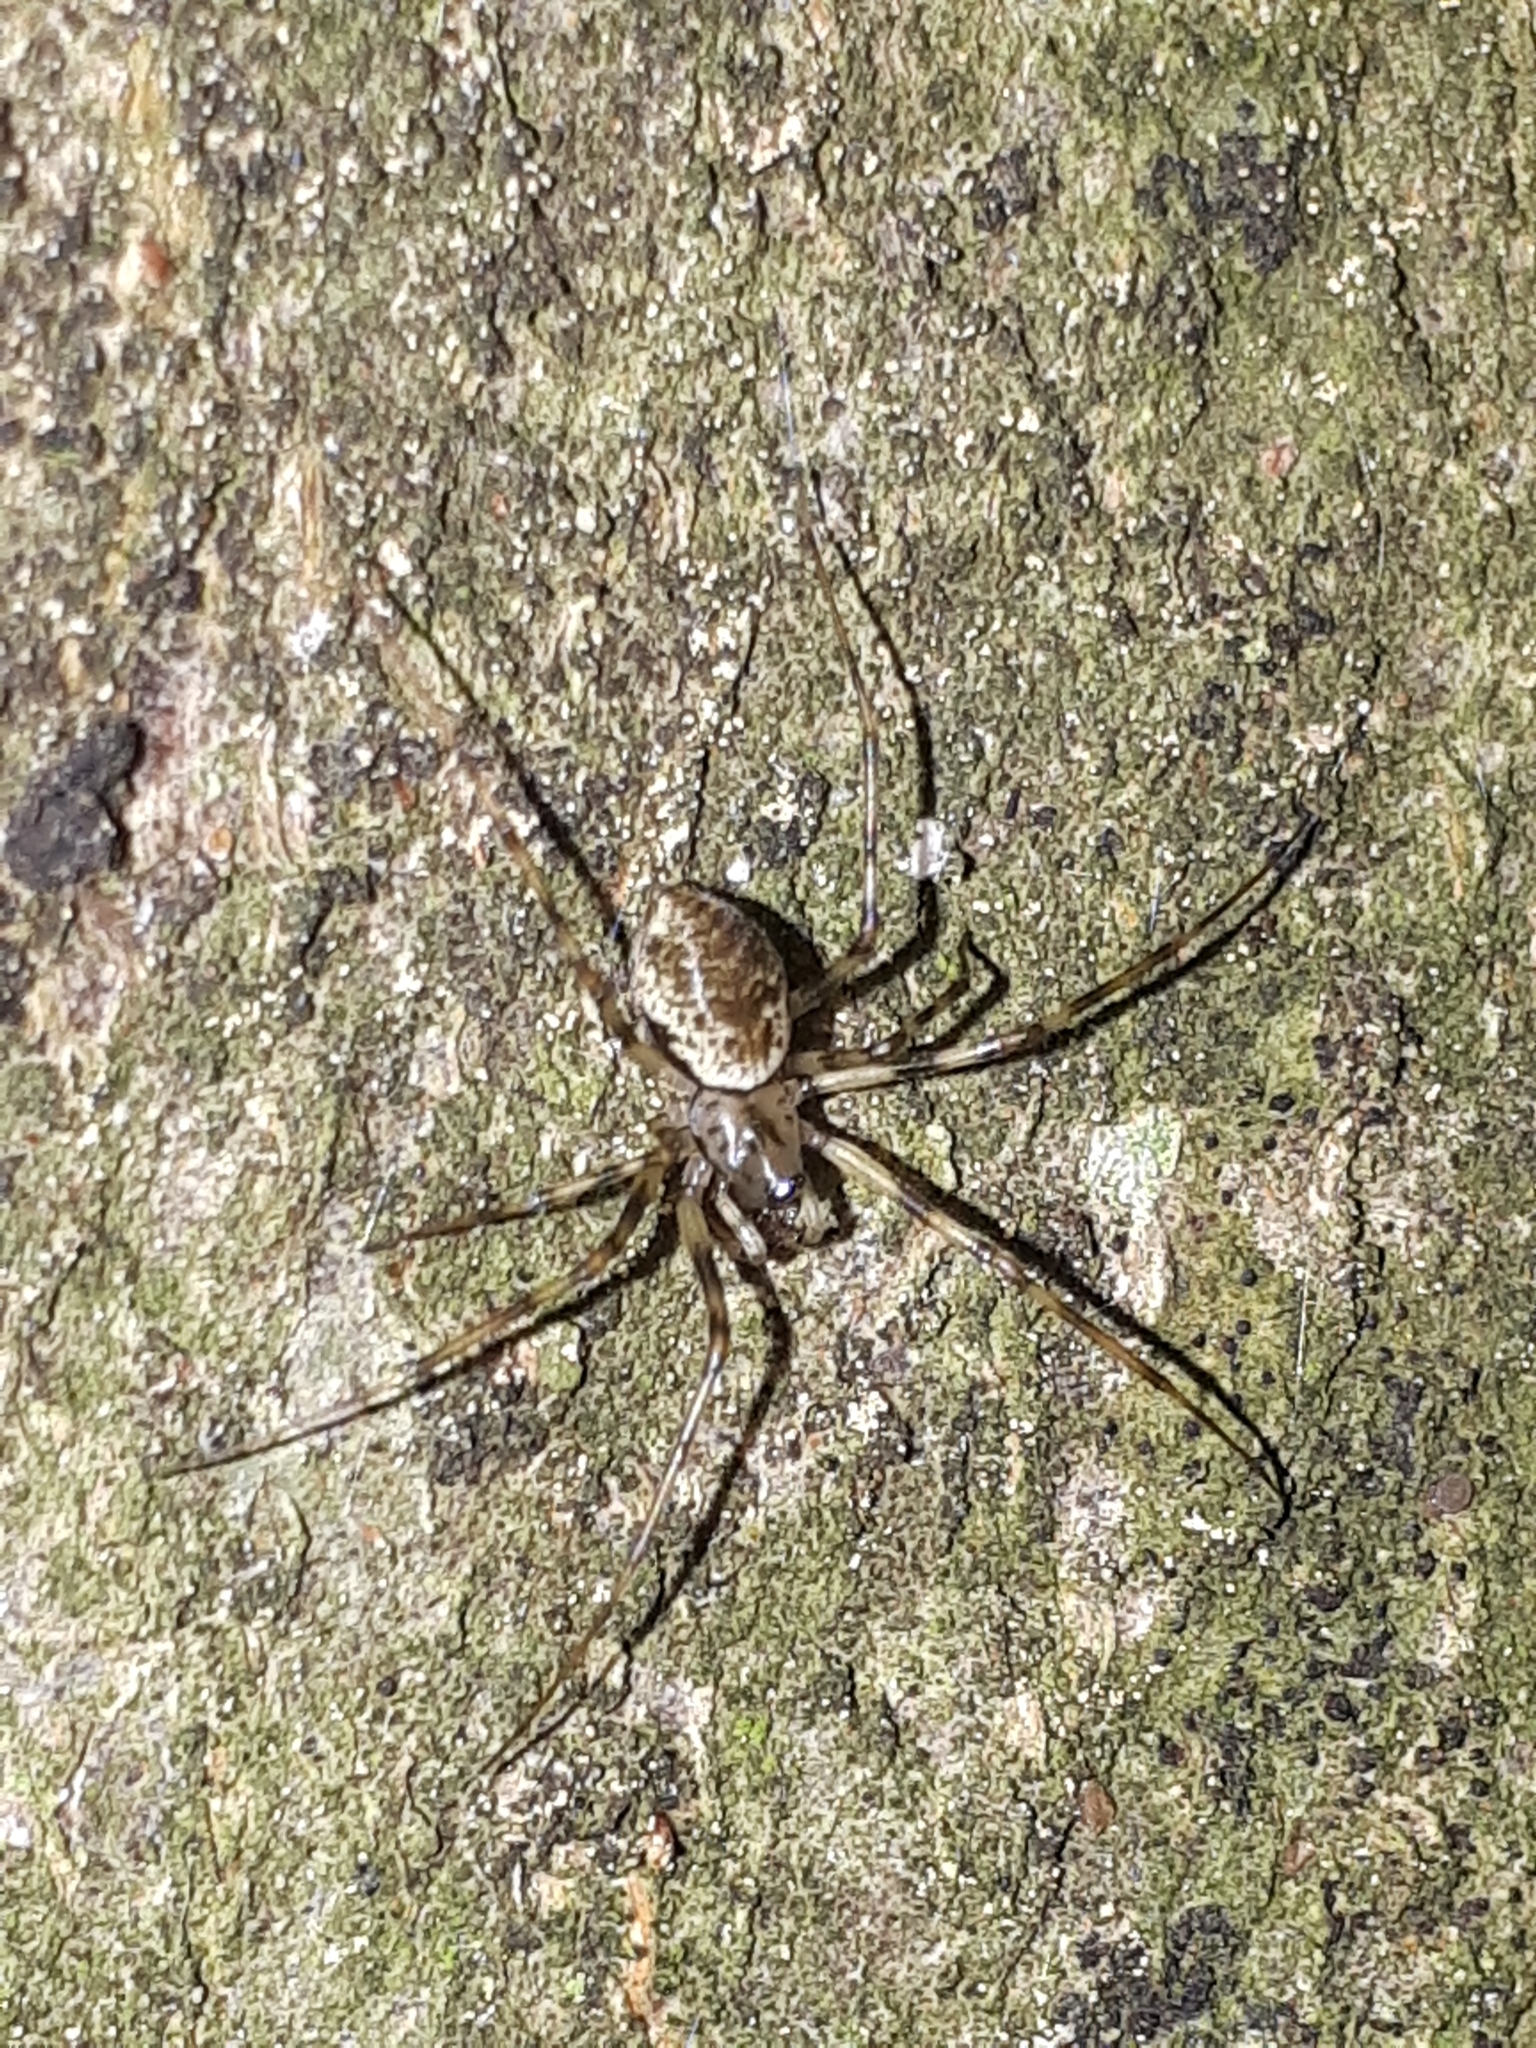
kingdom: Animalia
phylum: Arthropoda
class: Arachnida
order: Araneae
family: Linyphiidae
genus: Drapetisca
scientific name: Drapetisca socialis
